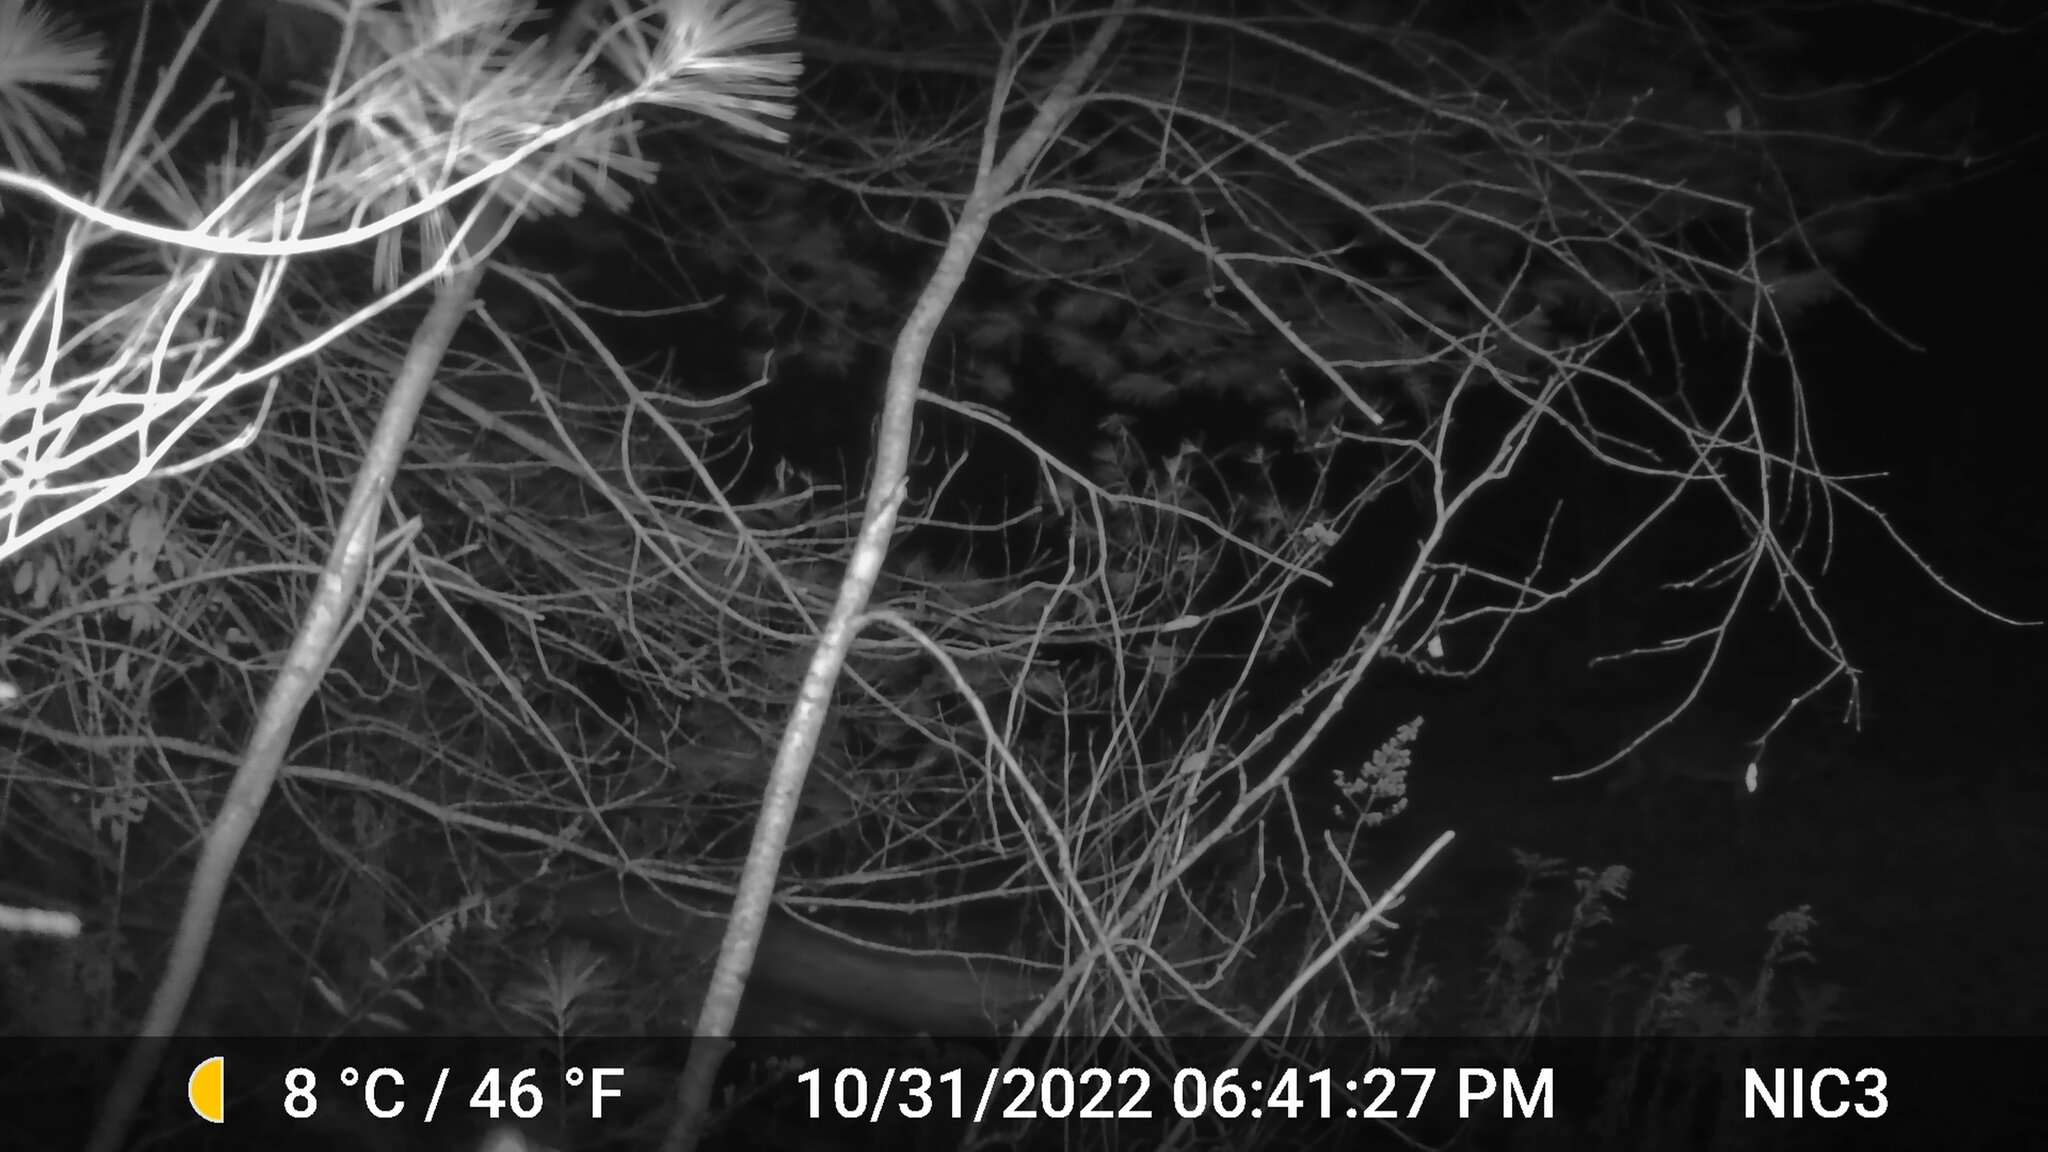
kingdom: Animalia
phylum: Chordata
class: Mammalia
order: Artiodactyla
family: Cervidae
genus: Odocoileus
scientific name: Odocoileus virginianus
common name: White-tailed deer
